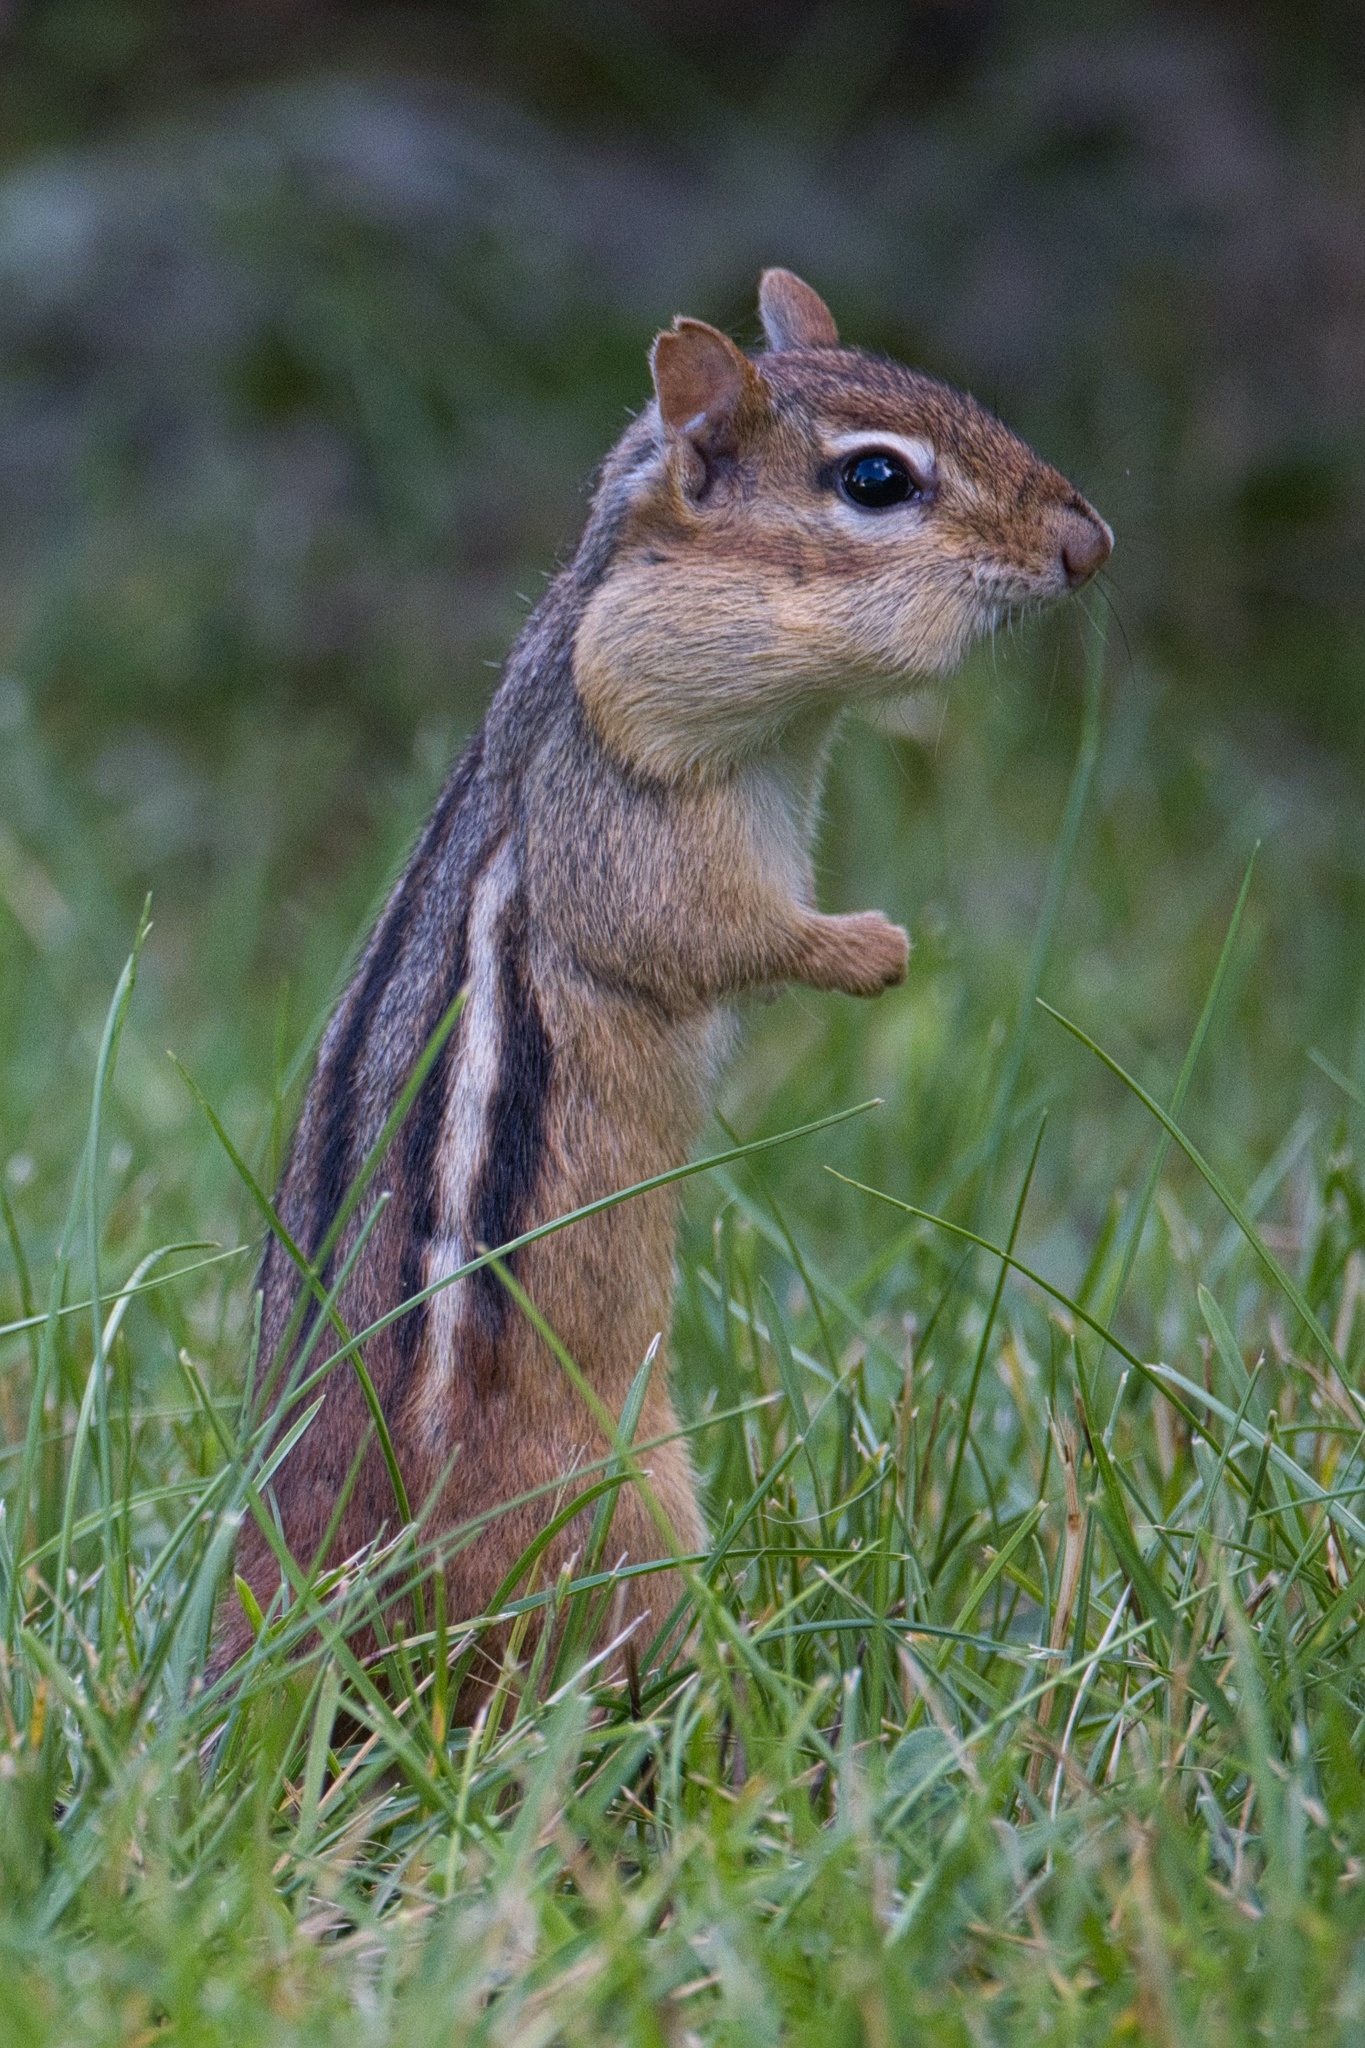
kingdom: Animalia
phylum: Chordata
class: Mammalia
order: Rodentia
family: Sciuridae
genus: Tamias
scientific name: Tamias striatus
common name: Eastern chipmunk
